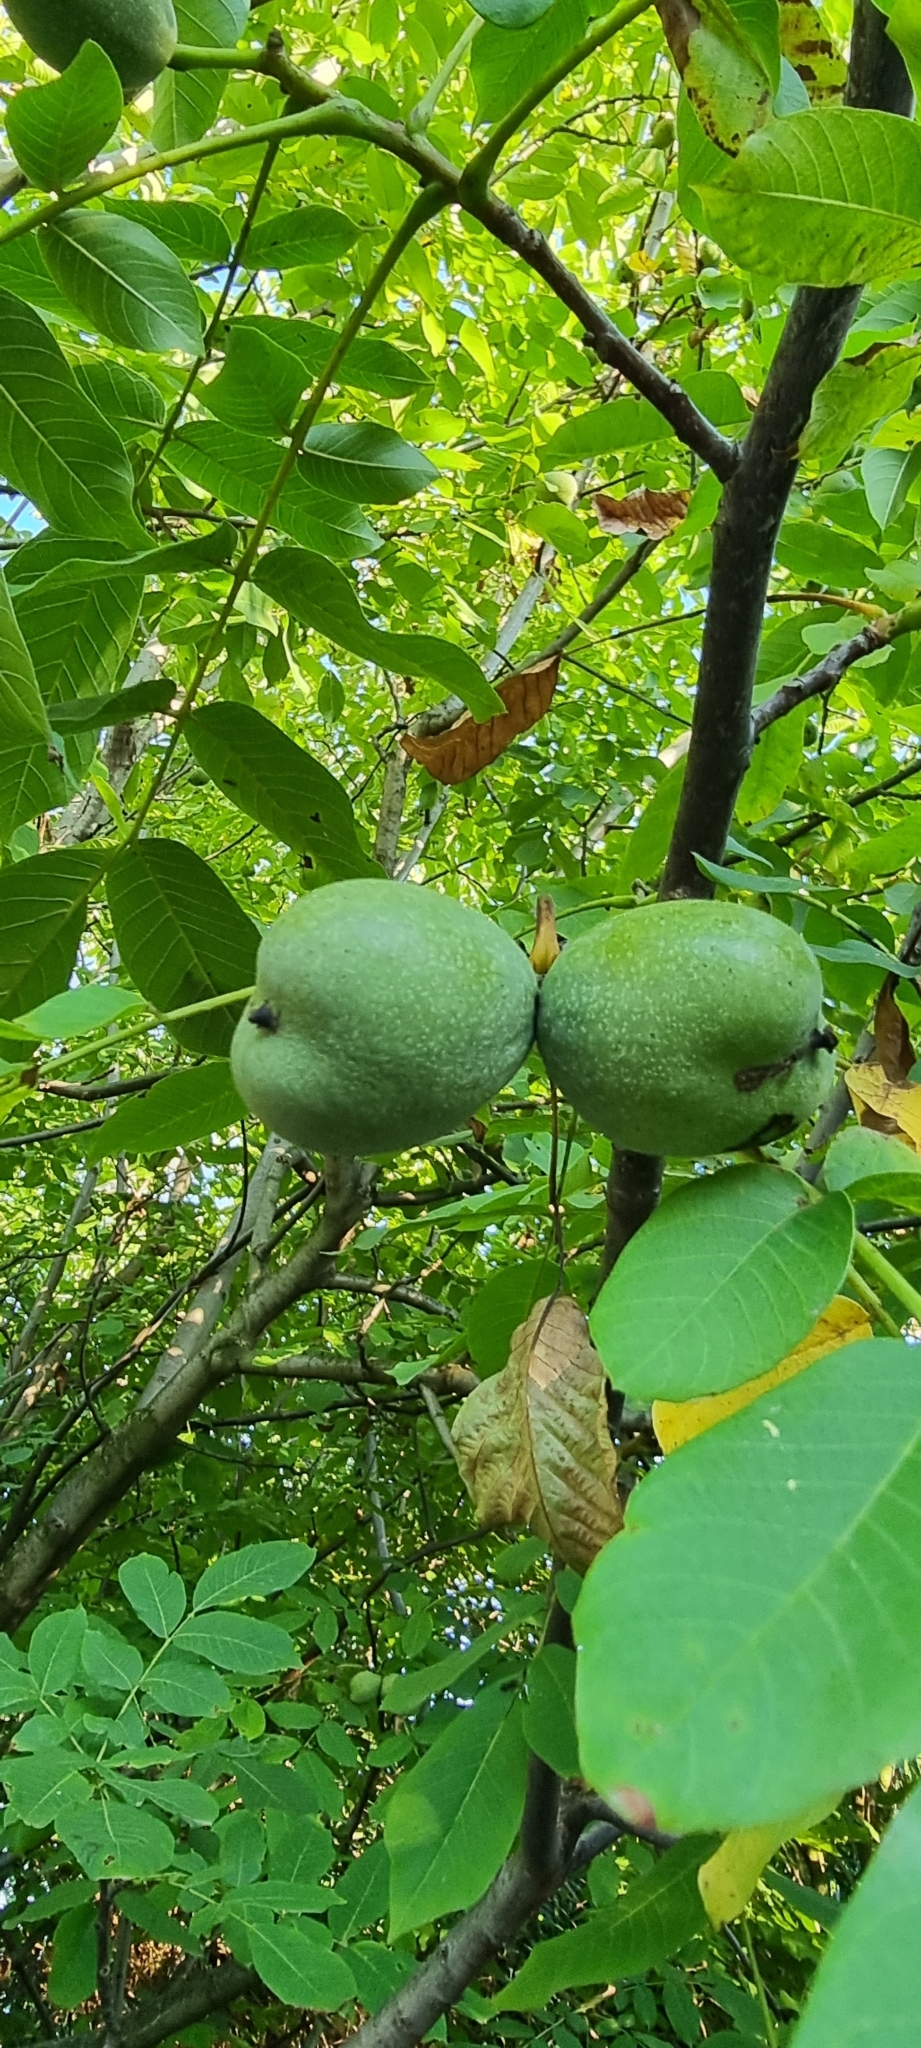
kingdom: Plantae
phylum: Tracheophyta
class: Magnoliopsida
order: Fagales
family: Juglandaceae
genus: Juglans
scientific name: Juglans regia
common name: Walnut
